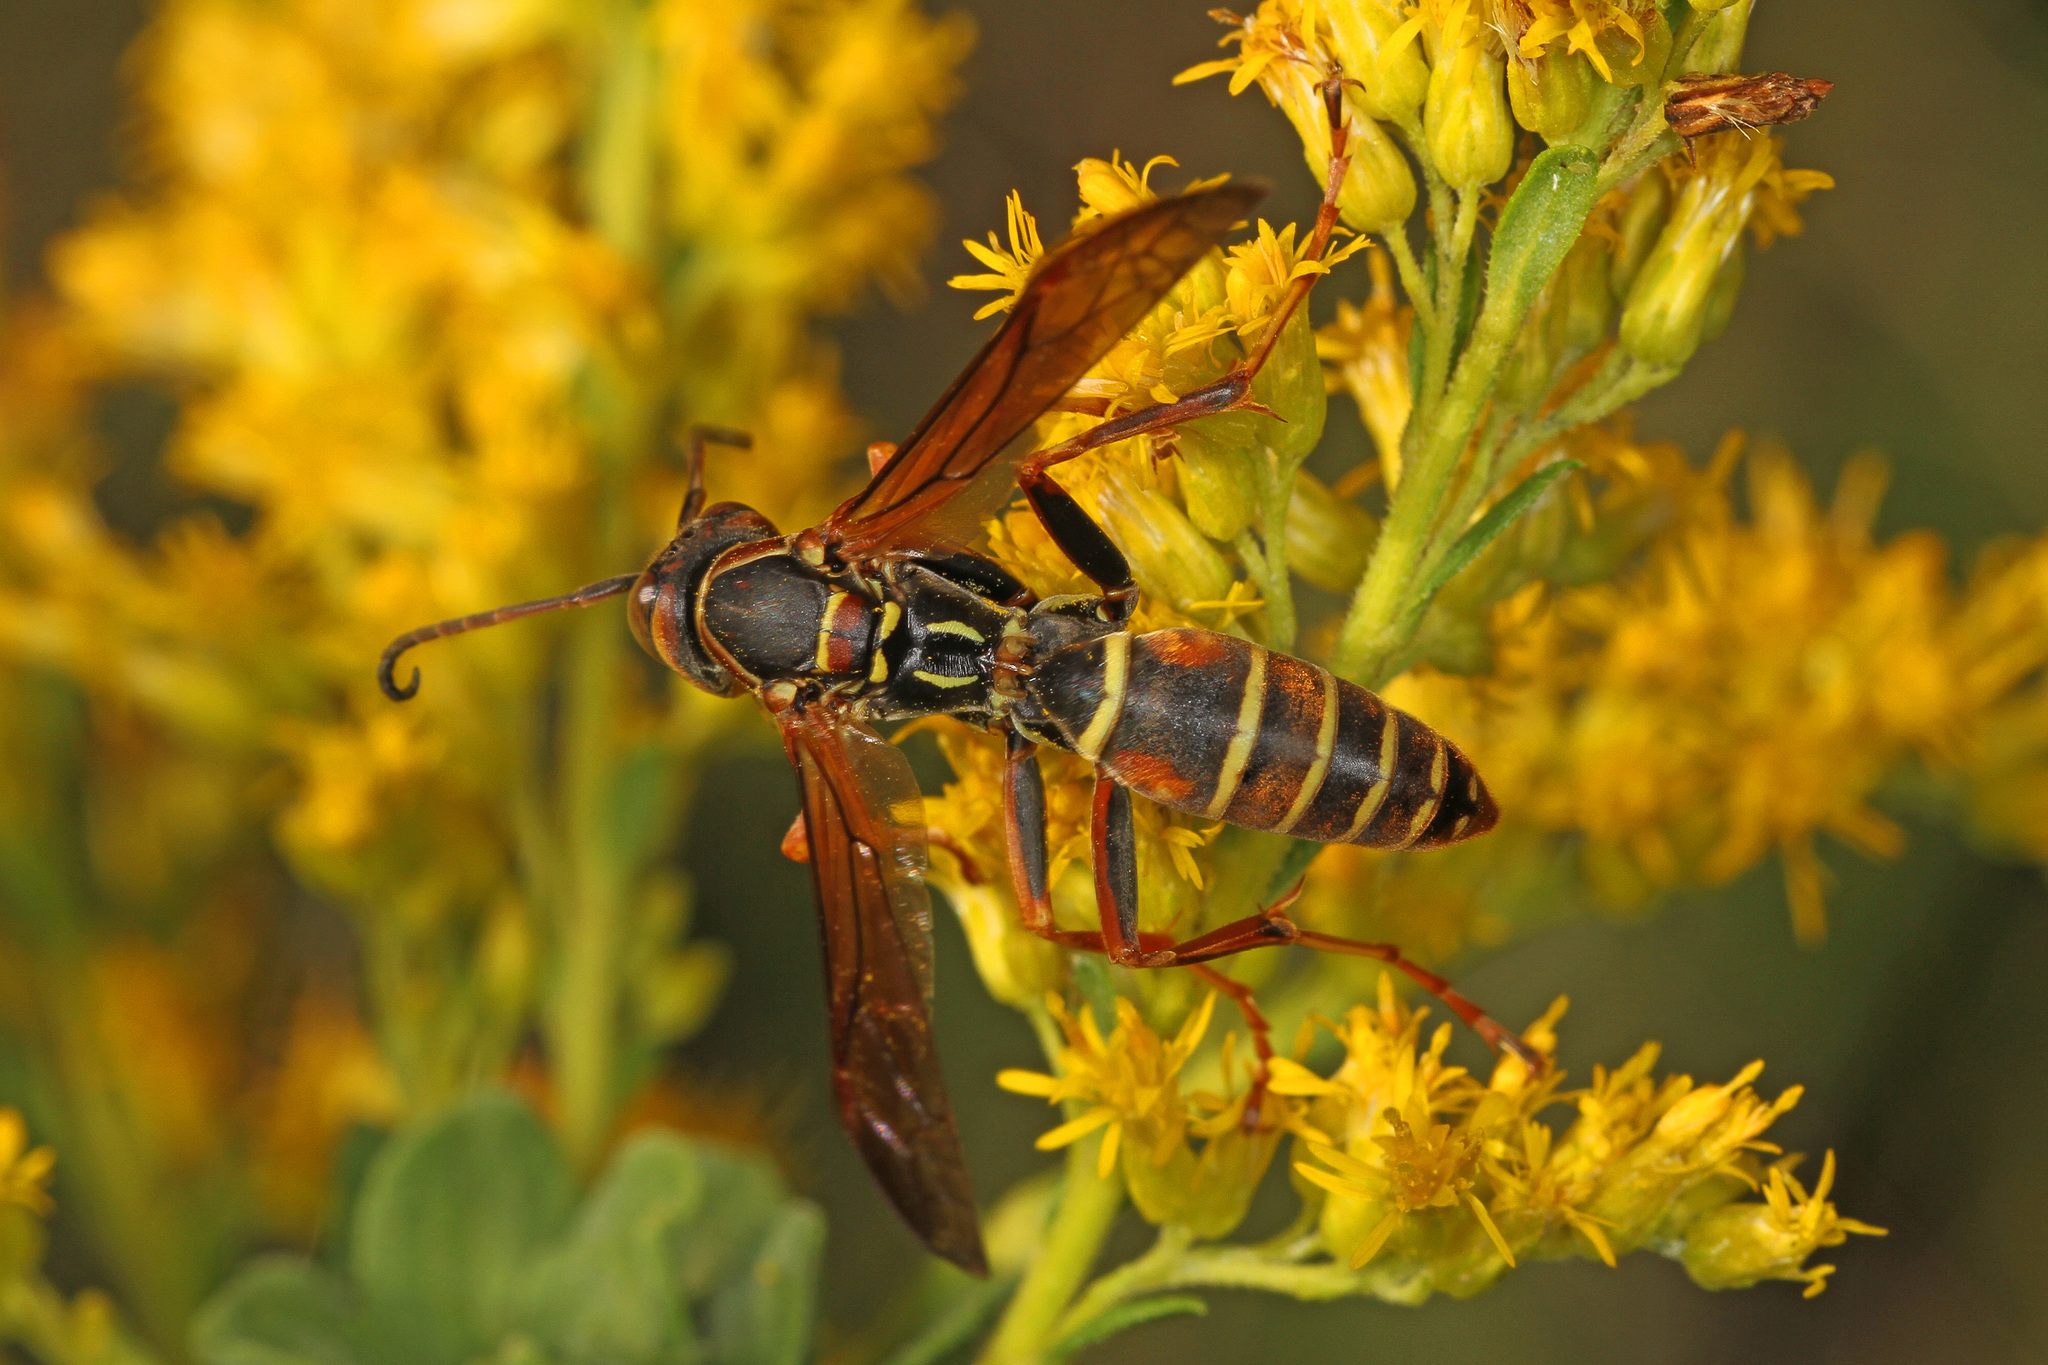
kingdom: Animalia
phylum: Arthropoda
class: Insecta
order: Hymenoptera
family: Eumenidae
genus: Polistes
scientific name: Polistes fuscatus
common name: Dark paper wasp
